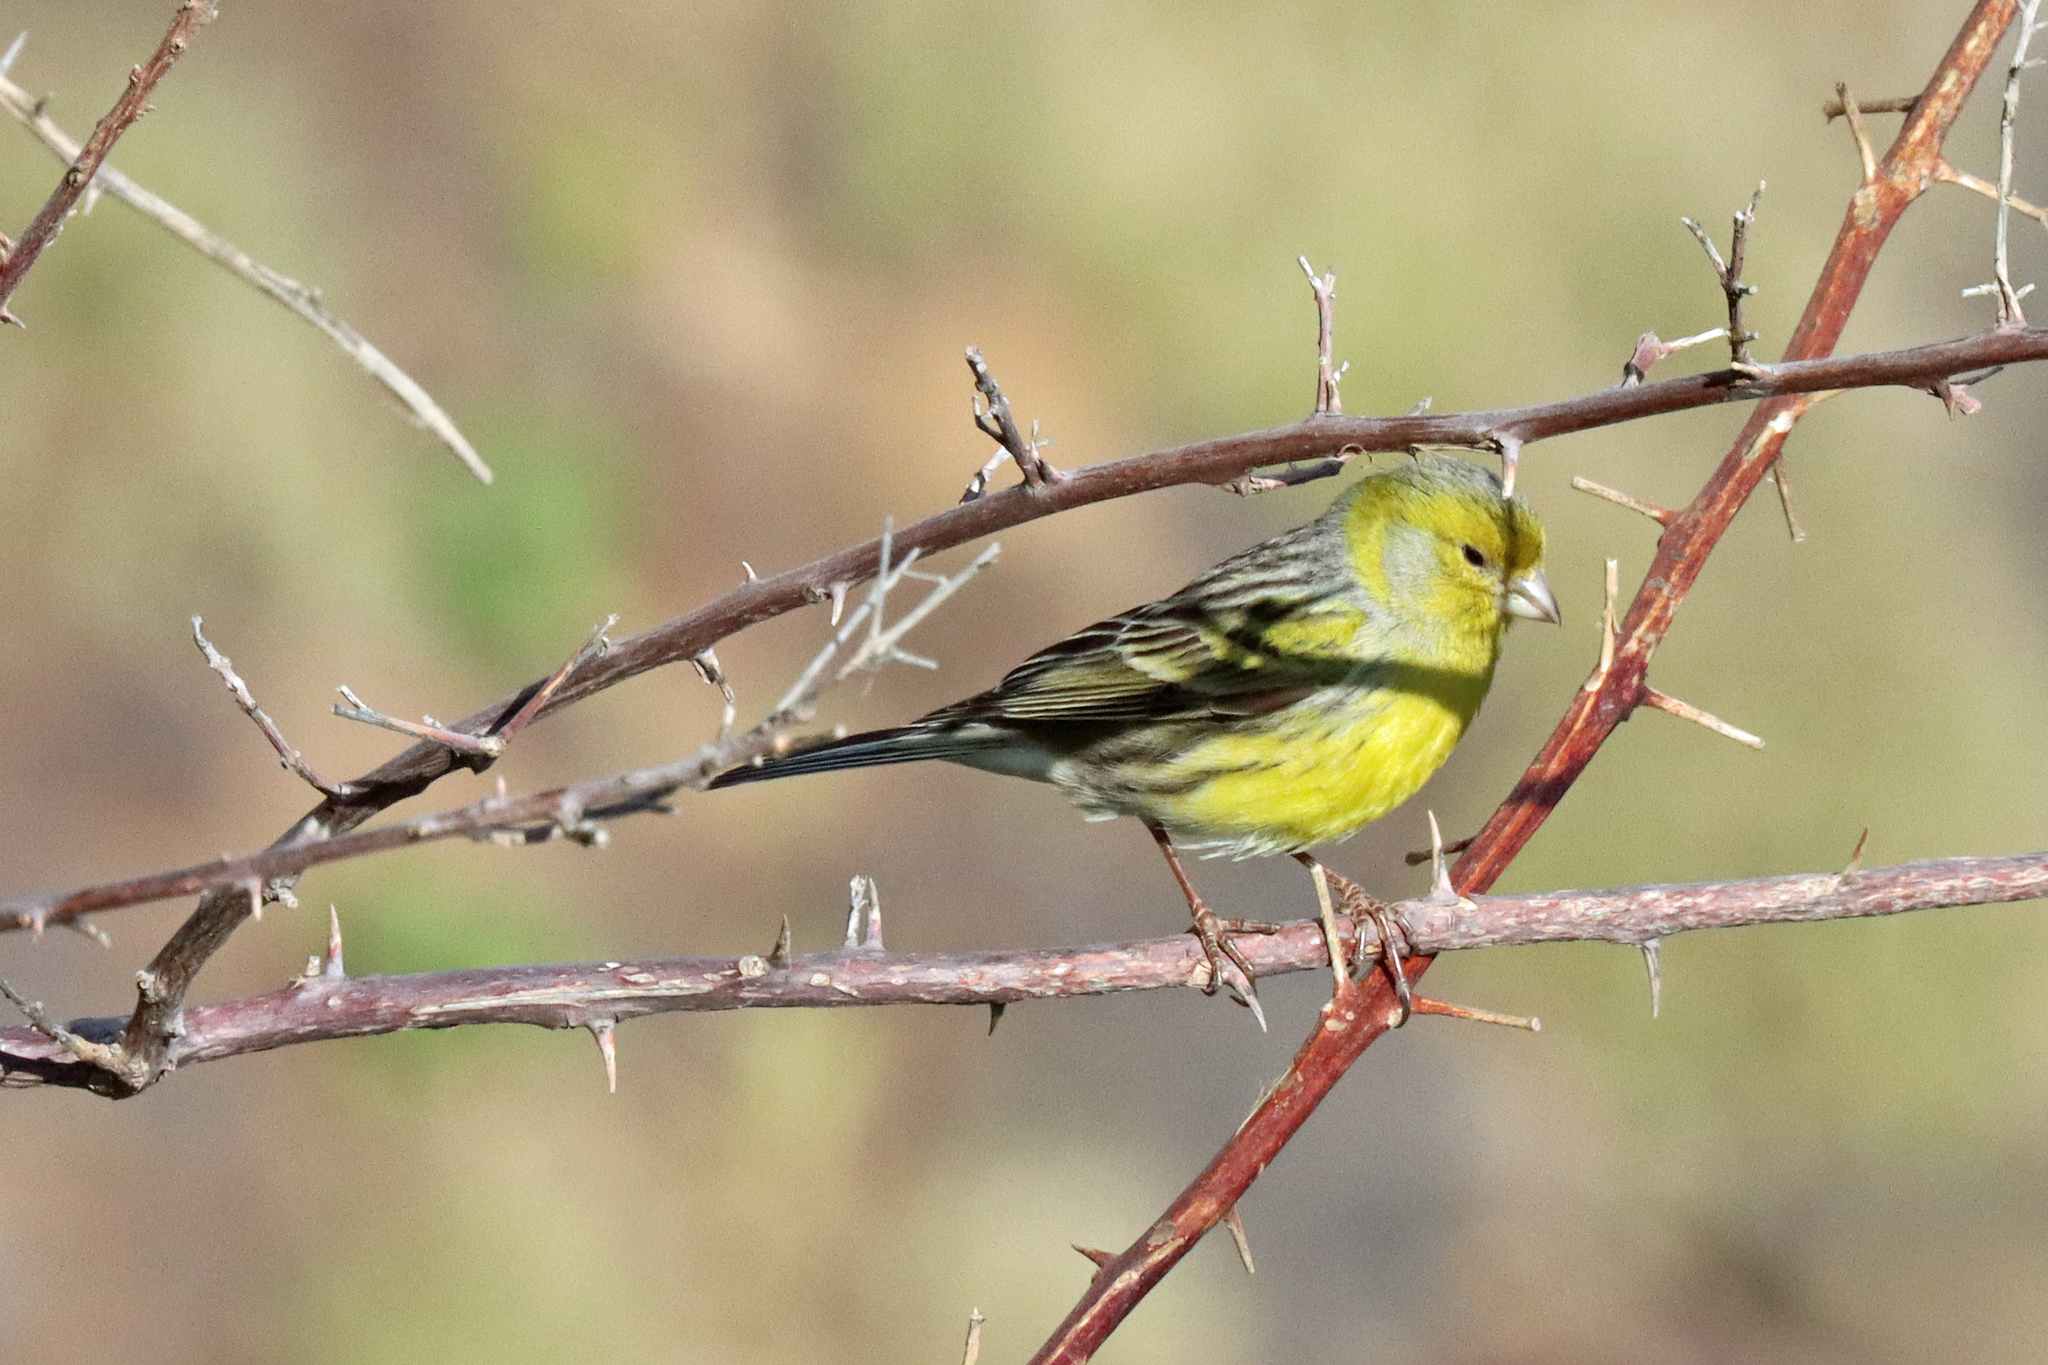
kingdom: Animalia
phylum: Chordata
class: Aves
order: Passeriformes
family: Fringillidae
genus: Serinus
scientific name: Serinus canaria
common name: Atlantic canary
